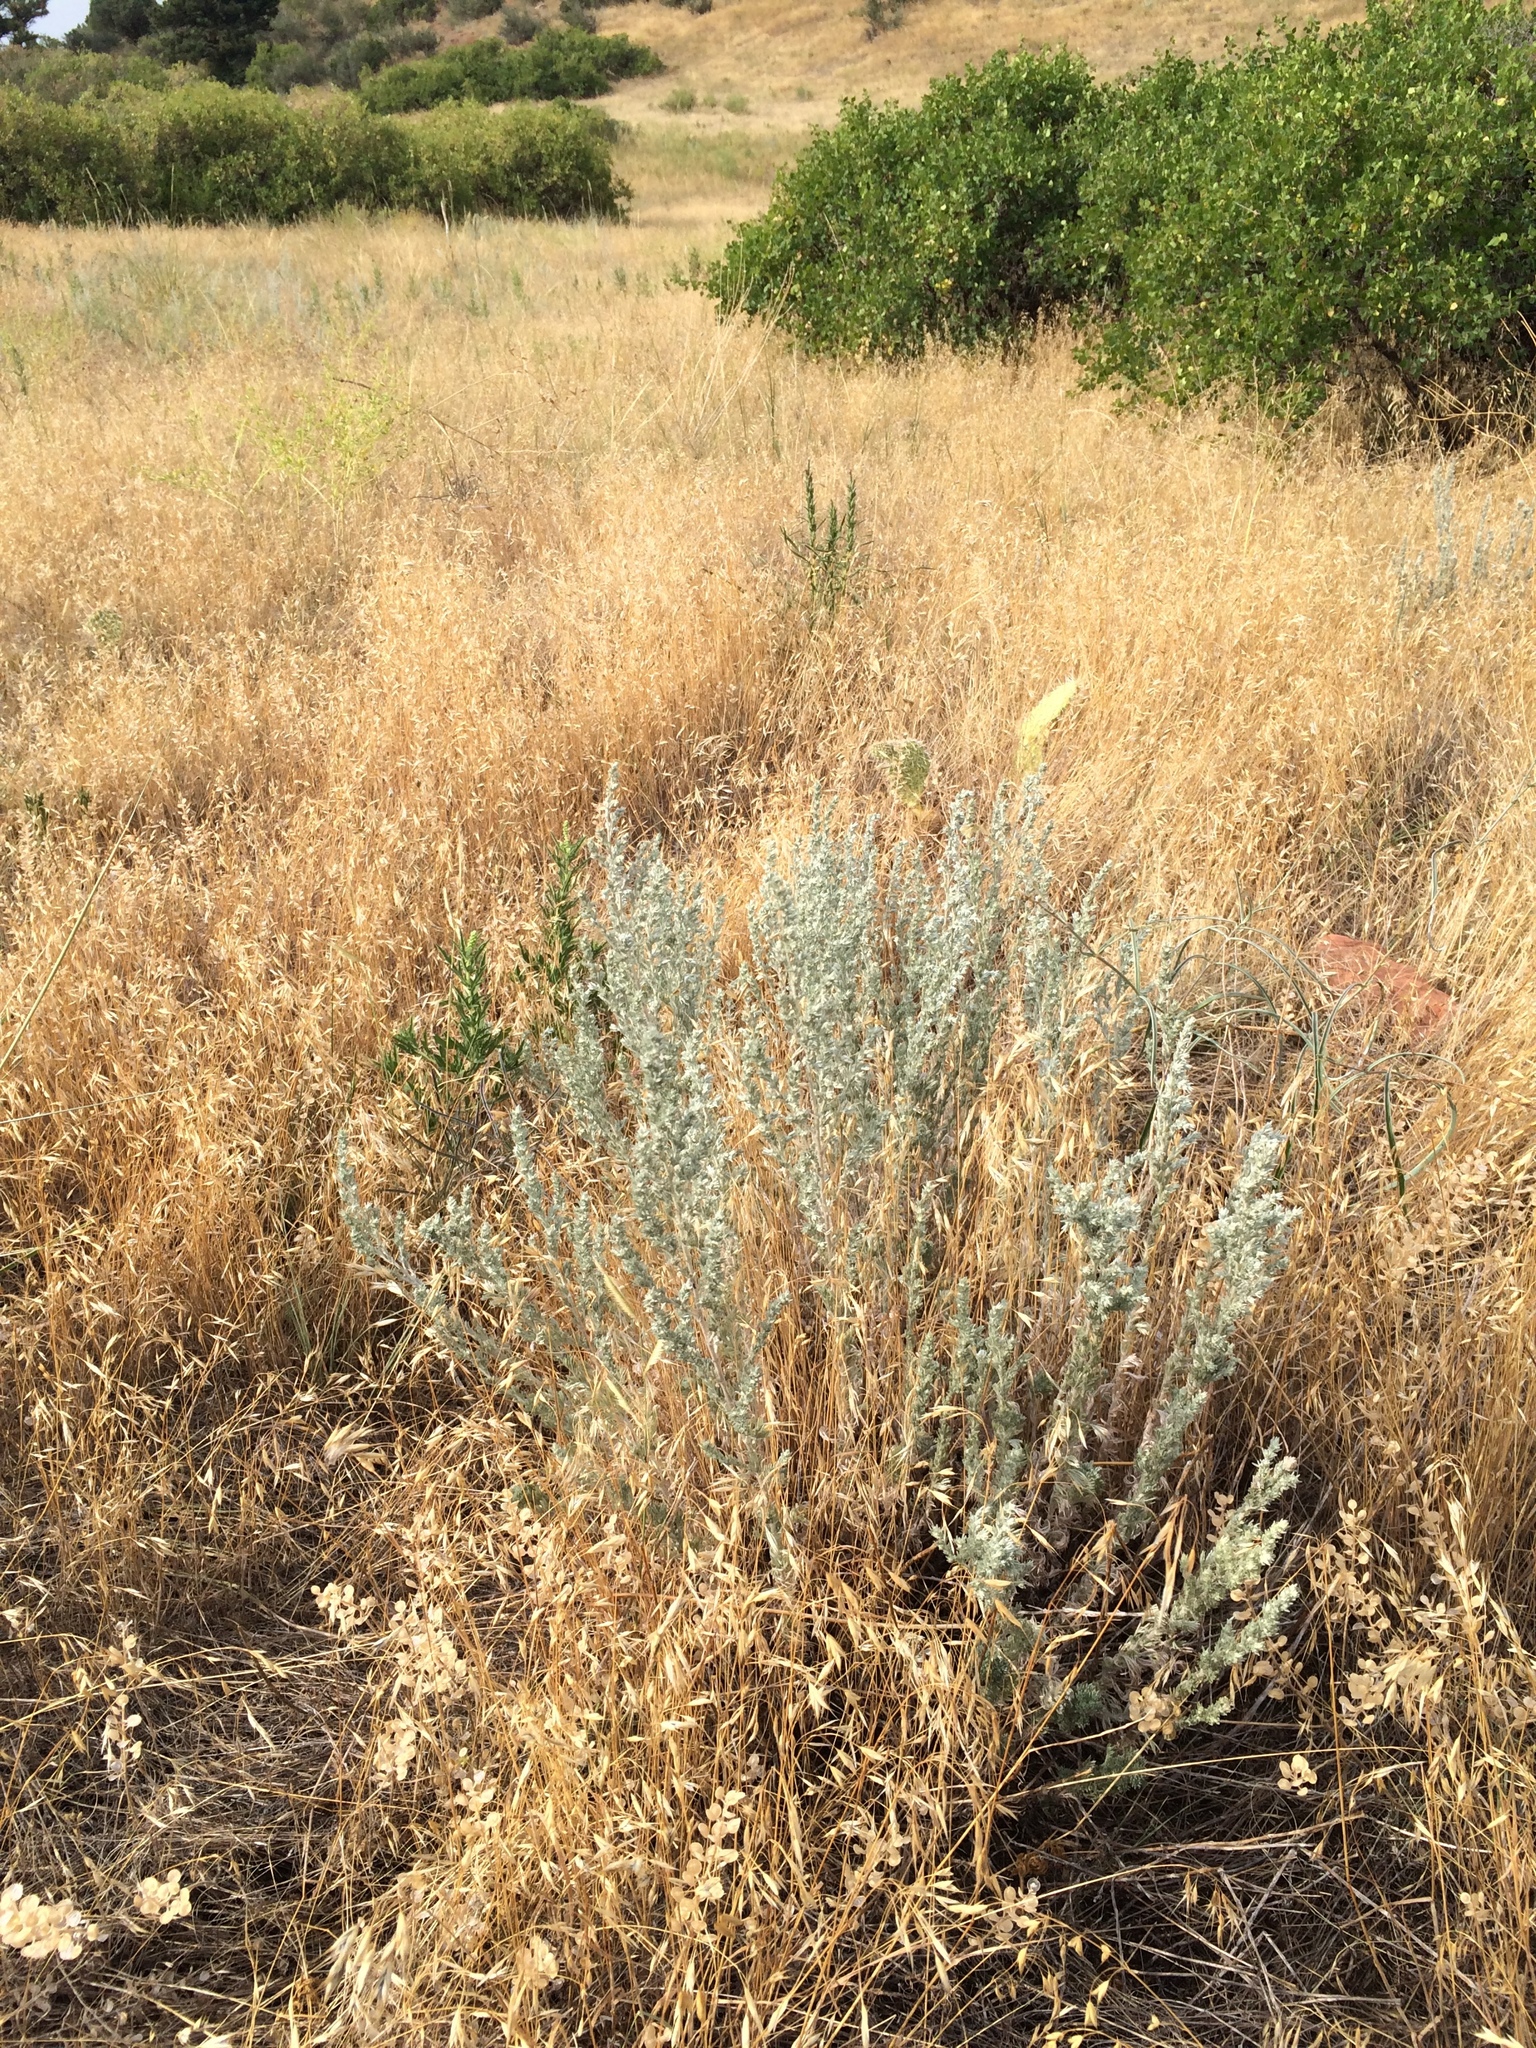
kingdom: Plantae
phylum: Tracheophyta
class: Magnoliopsida
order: Asterales
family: Asteraceae
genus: Artemisia
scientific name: Artemisia frigida
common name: Prairie sagewort
